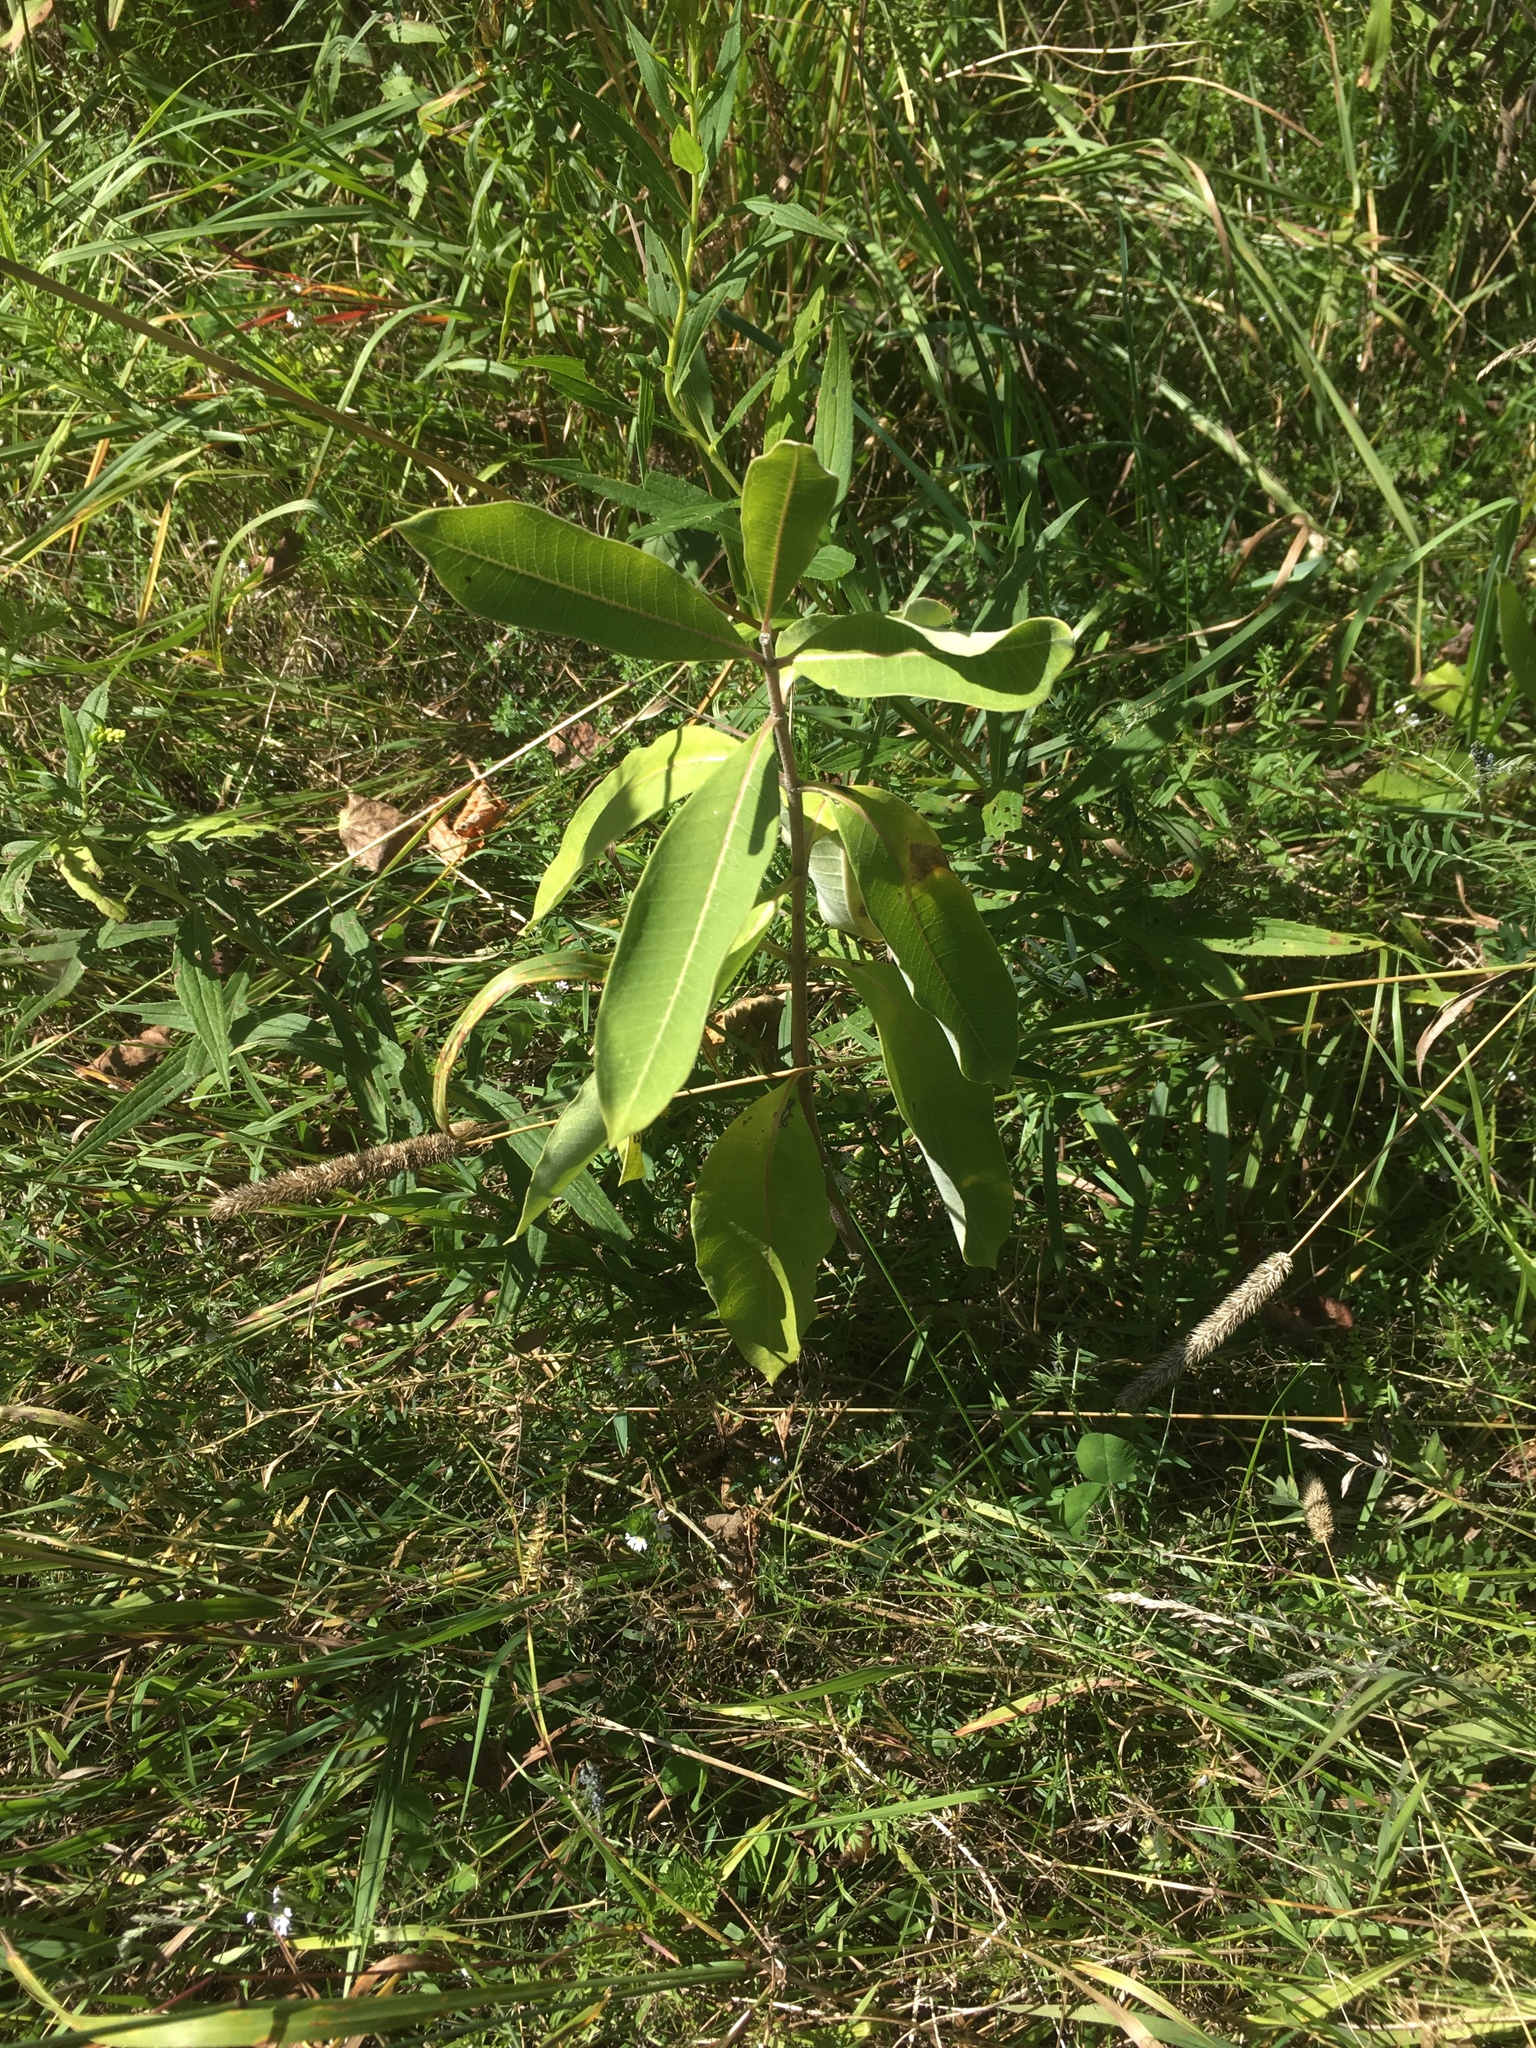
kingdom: Plantae
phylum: Tracheophyta
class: Magnoliopsida
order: Gentianales
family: Apocynaceae
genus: Asclepias
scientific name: Asclepias syriaca
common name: Common milkweed
